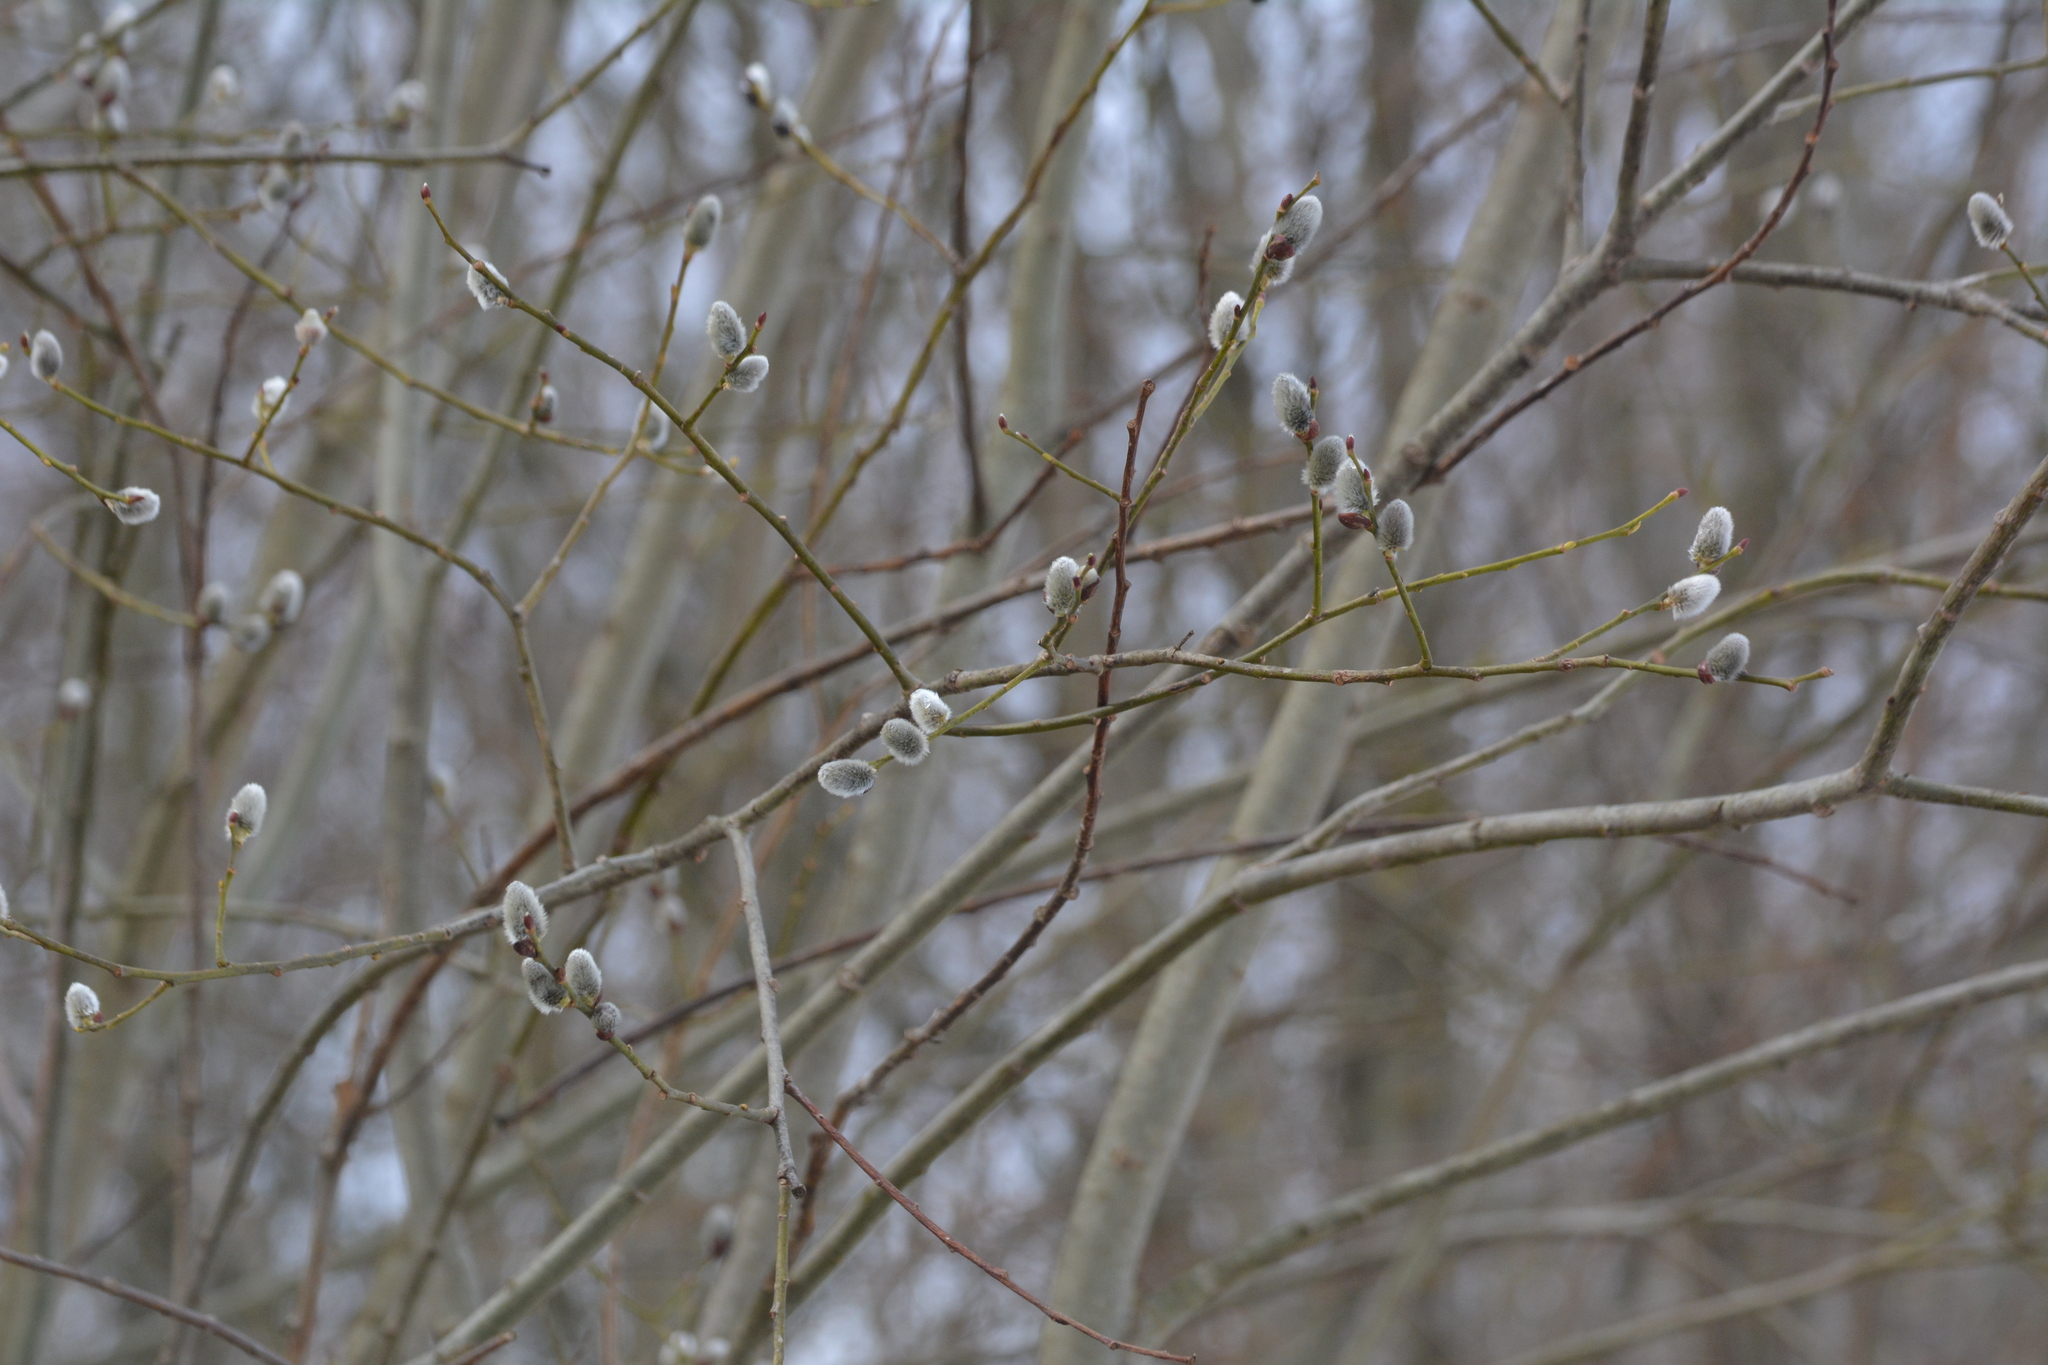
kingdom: Plantae
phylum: Tracheophyta
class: Magnoliopsida
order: Malpighiales
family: Salicaceae
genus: Salix
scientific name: Salix caprea
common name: Goat willow
